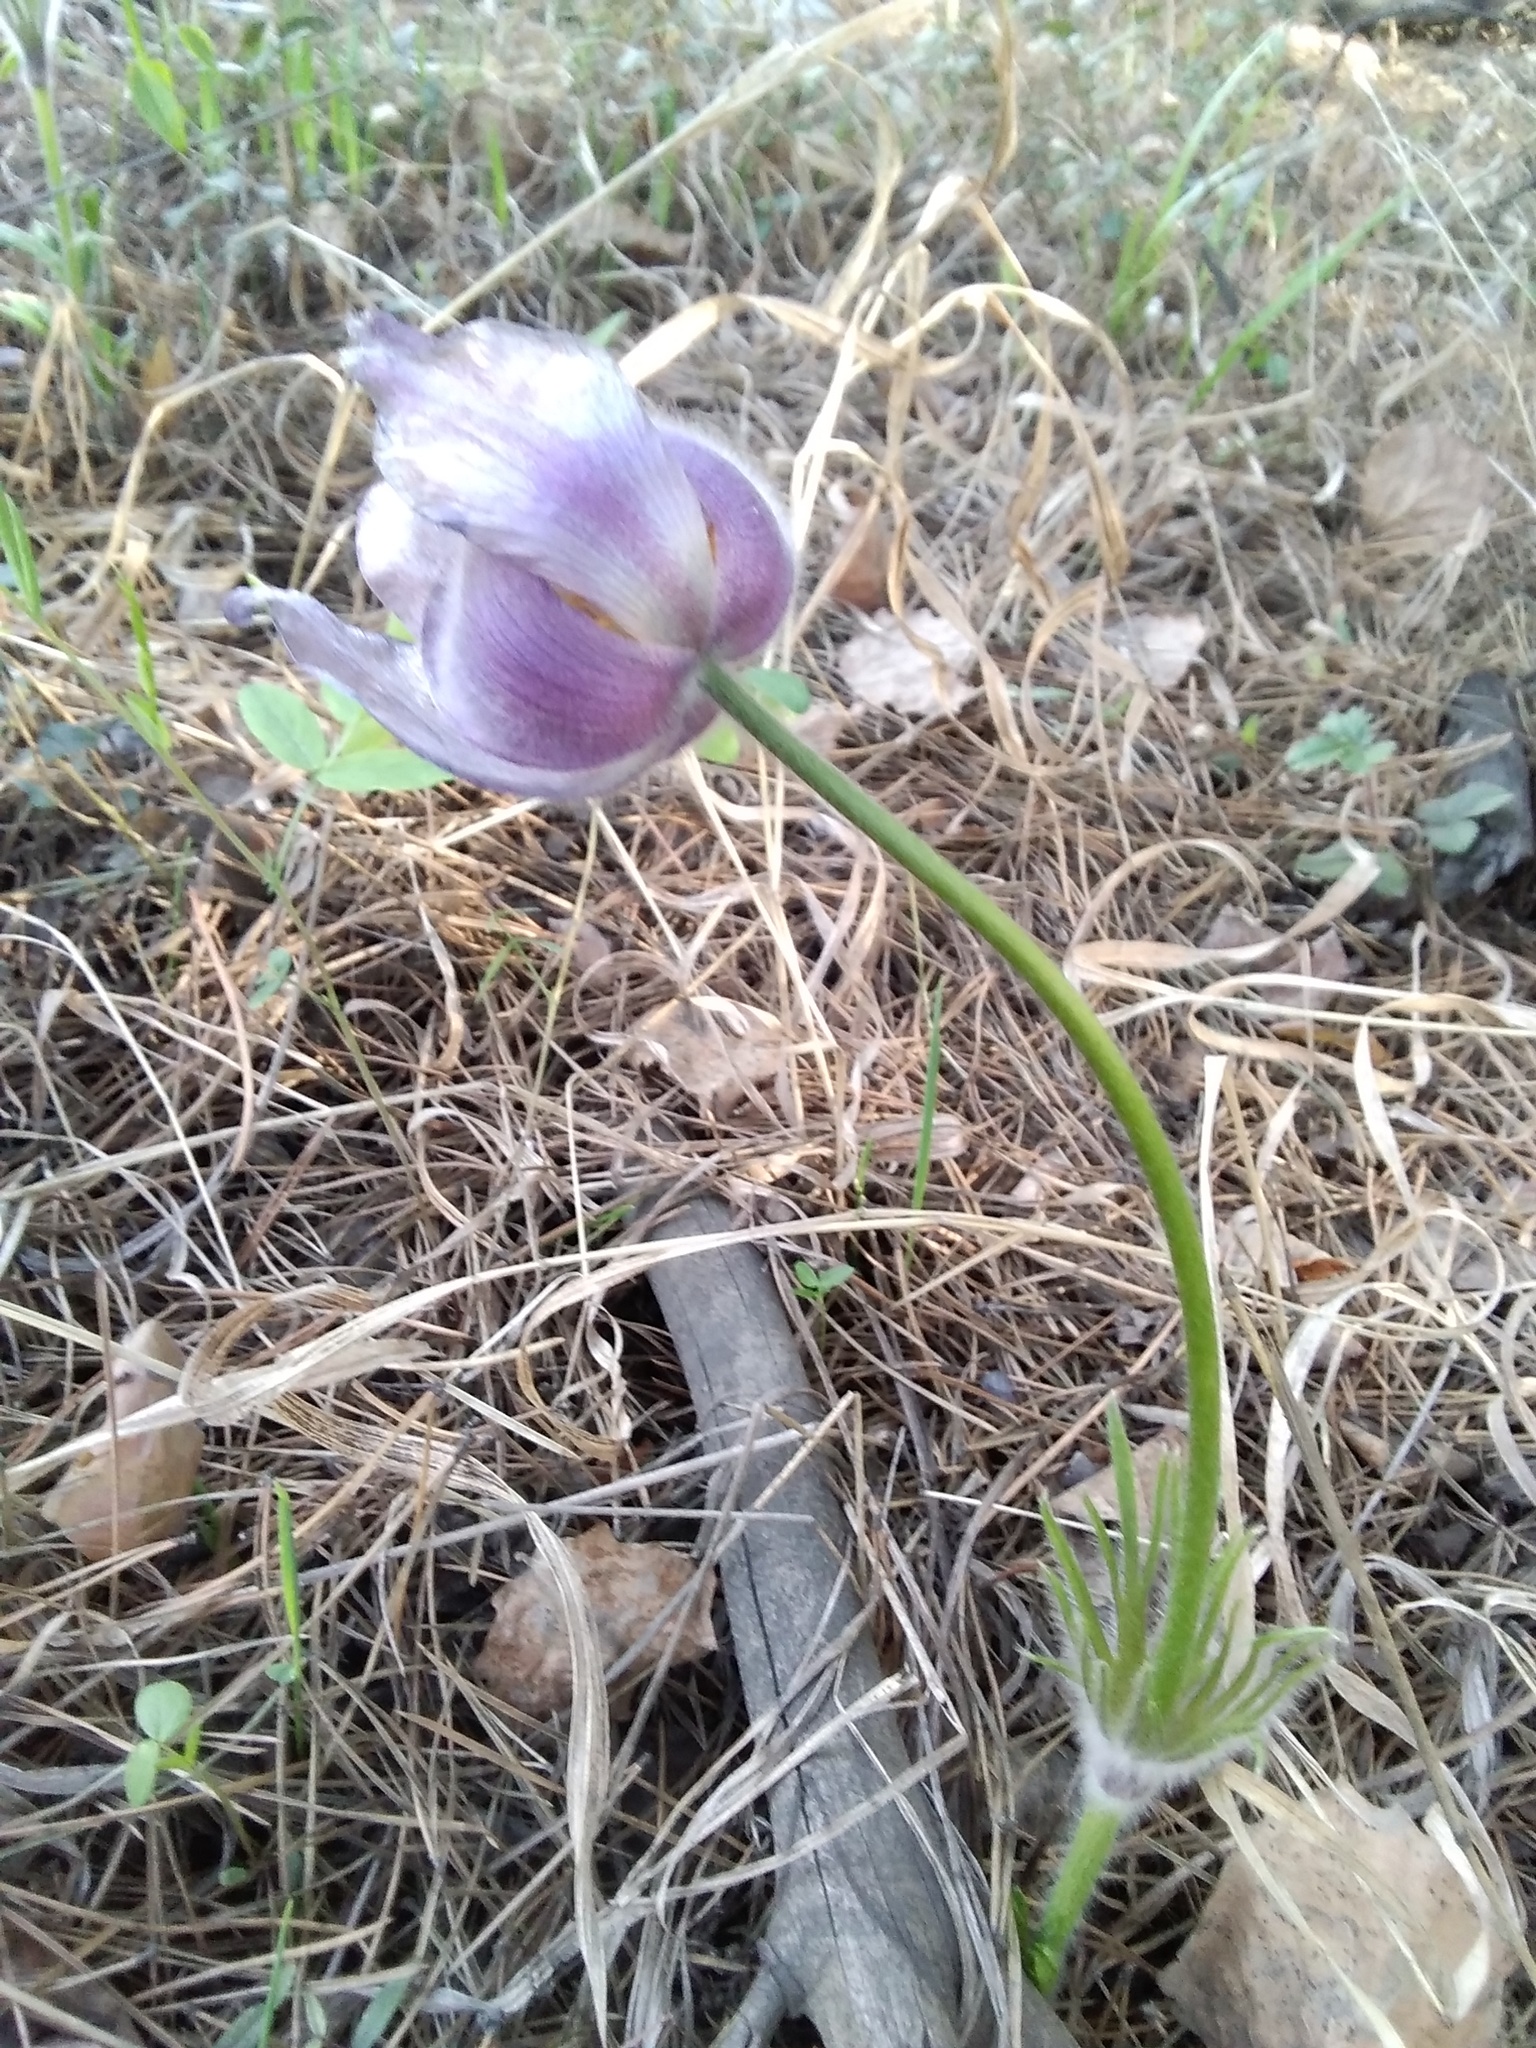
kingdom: Plantae
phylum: Tracheophyta
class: Magnoliopsida
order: Ranunculales
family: Ranunculaceae
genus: Pulsatilla
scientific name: Pulsatilla patens
